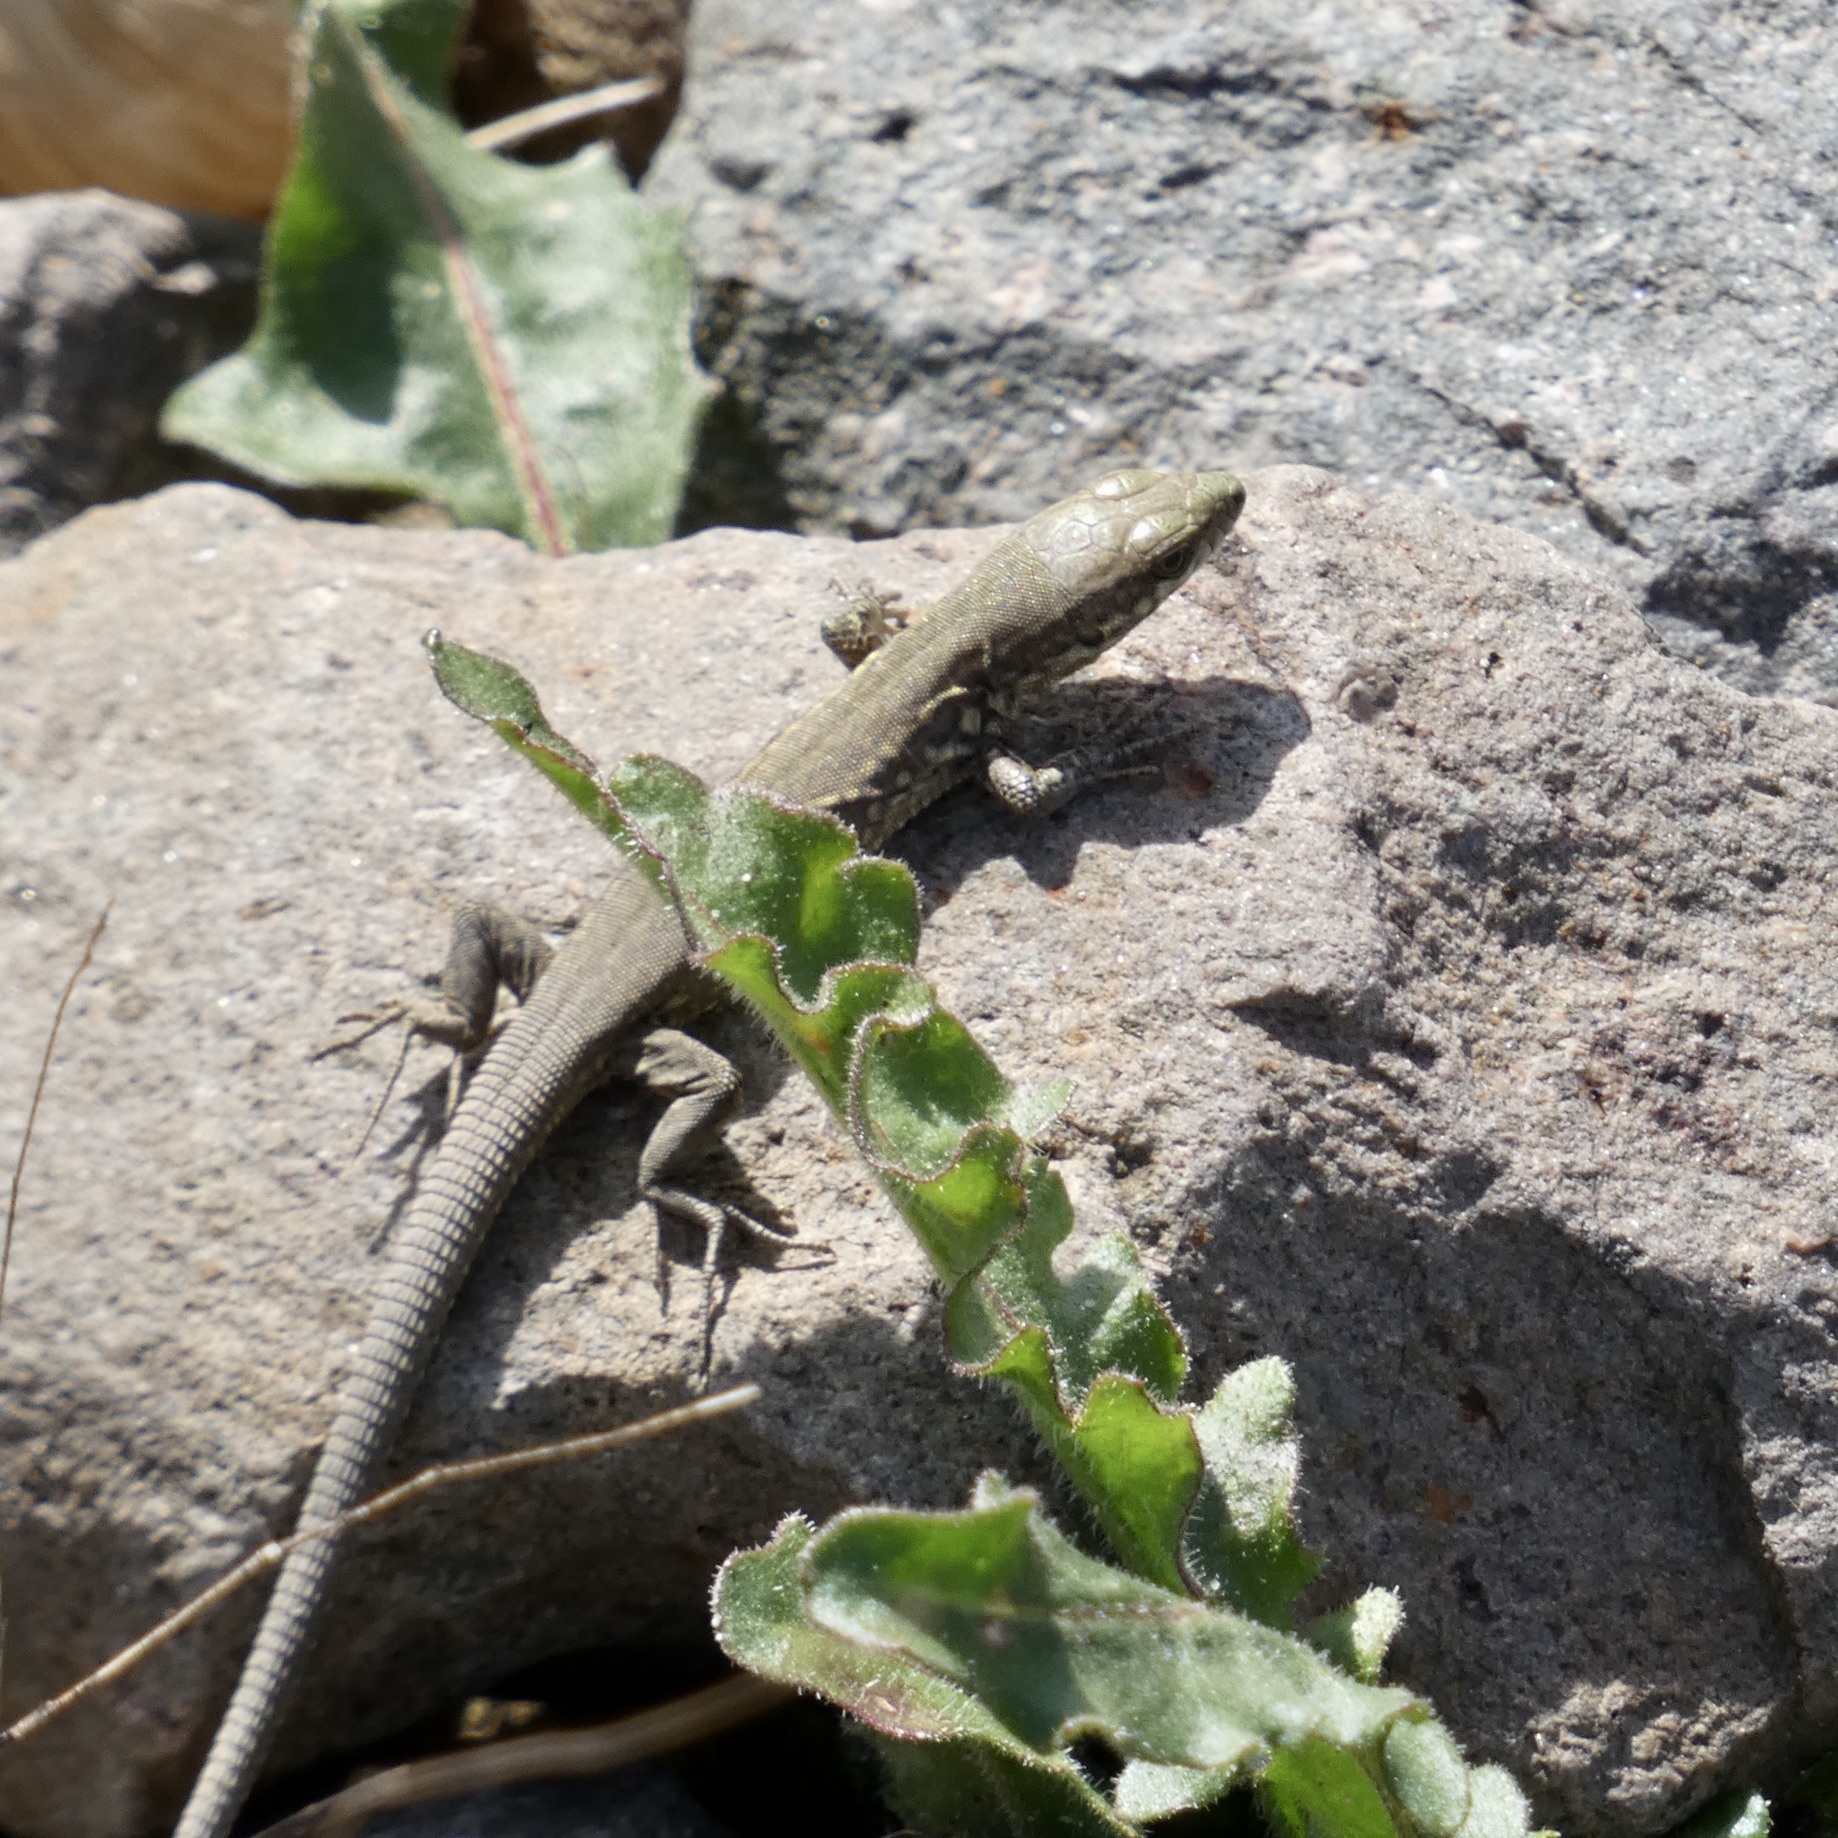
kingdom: Animalia
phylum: Chordata
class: Squamata
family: Lacertidae
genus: Podarcis
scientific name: Podarcis muralis
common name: Common wall lizard
